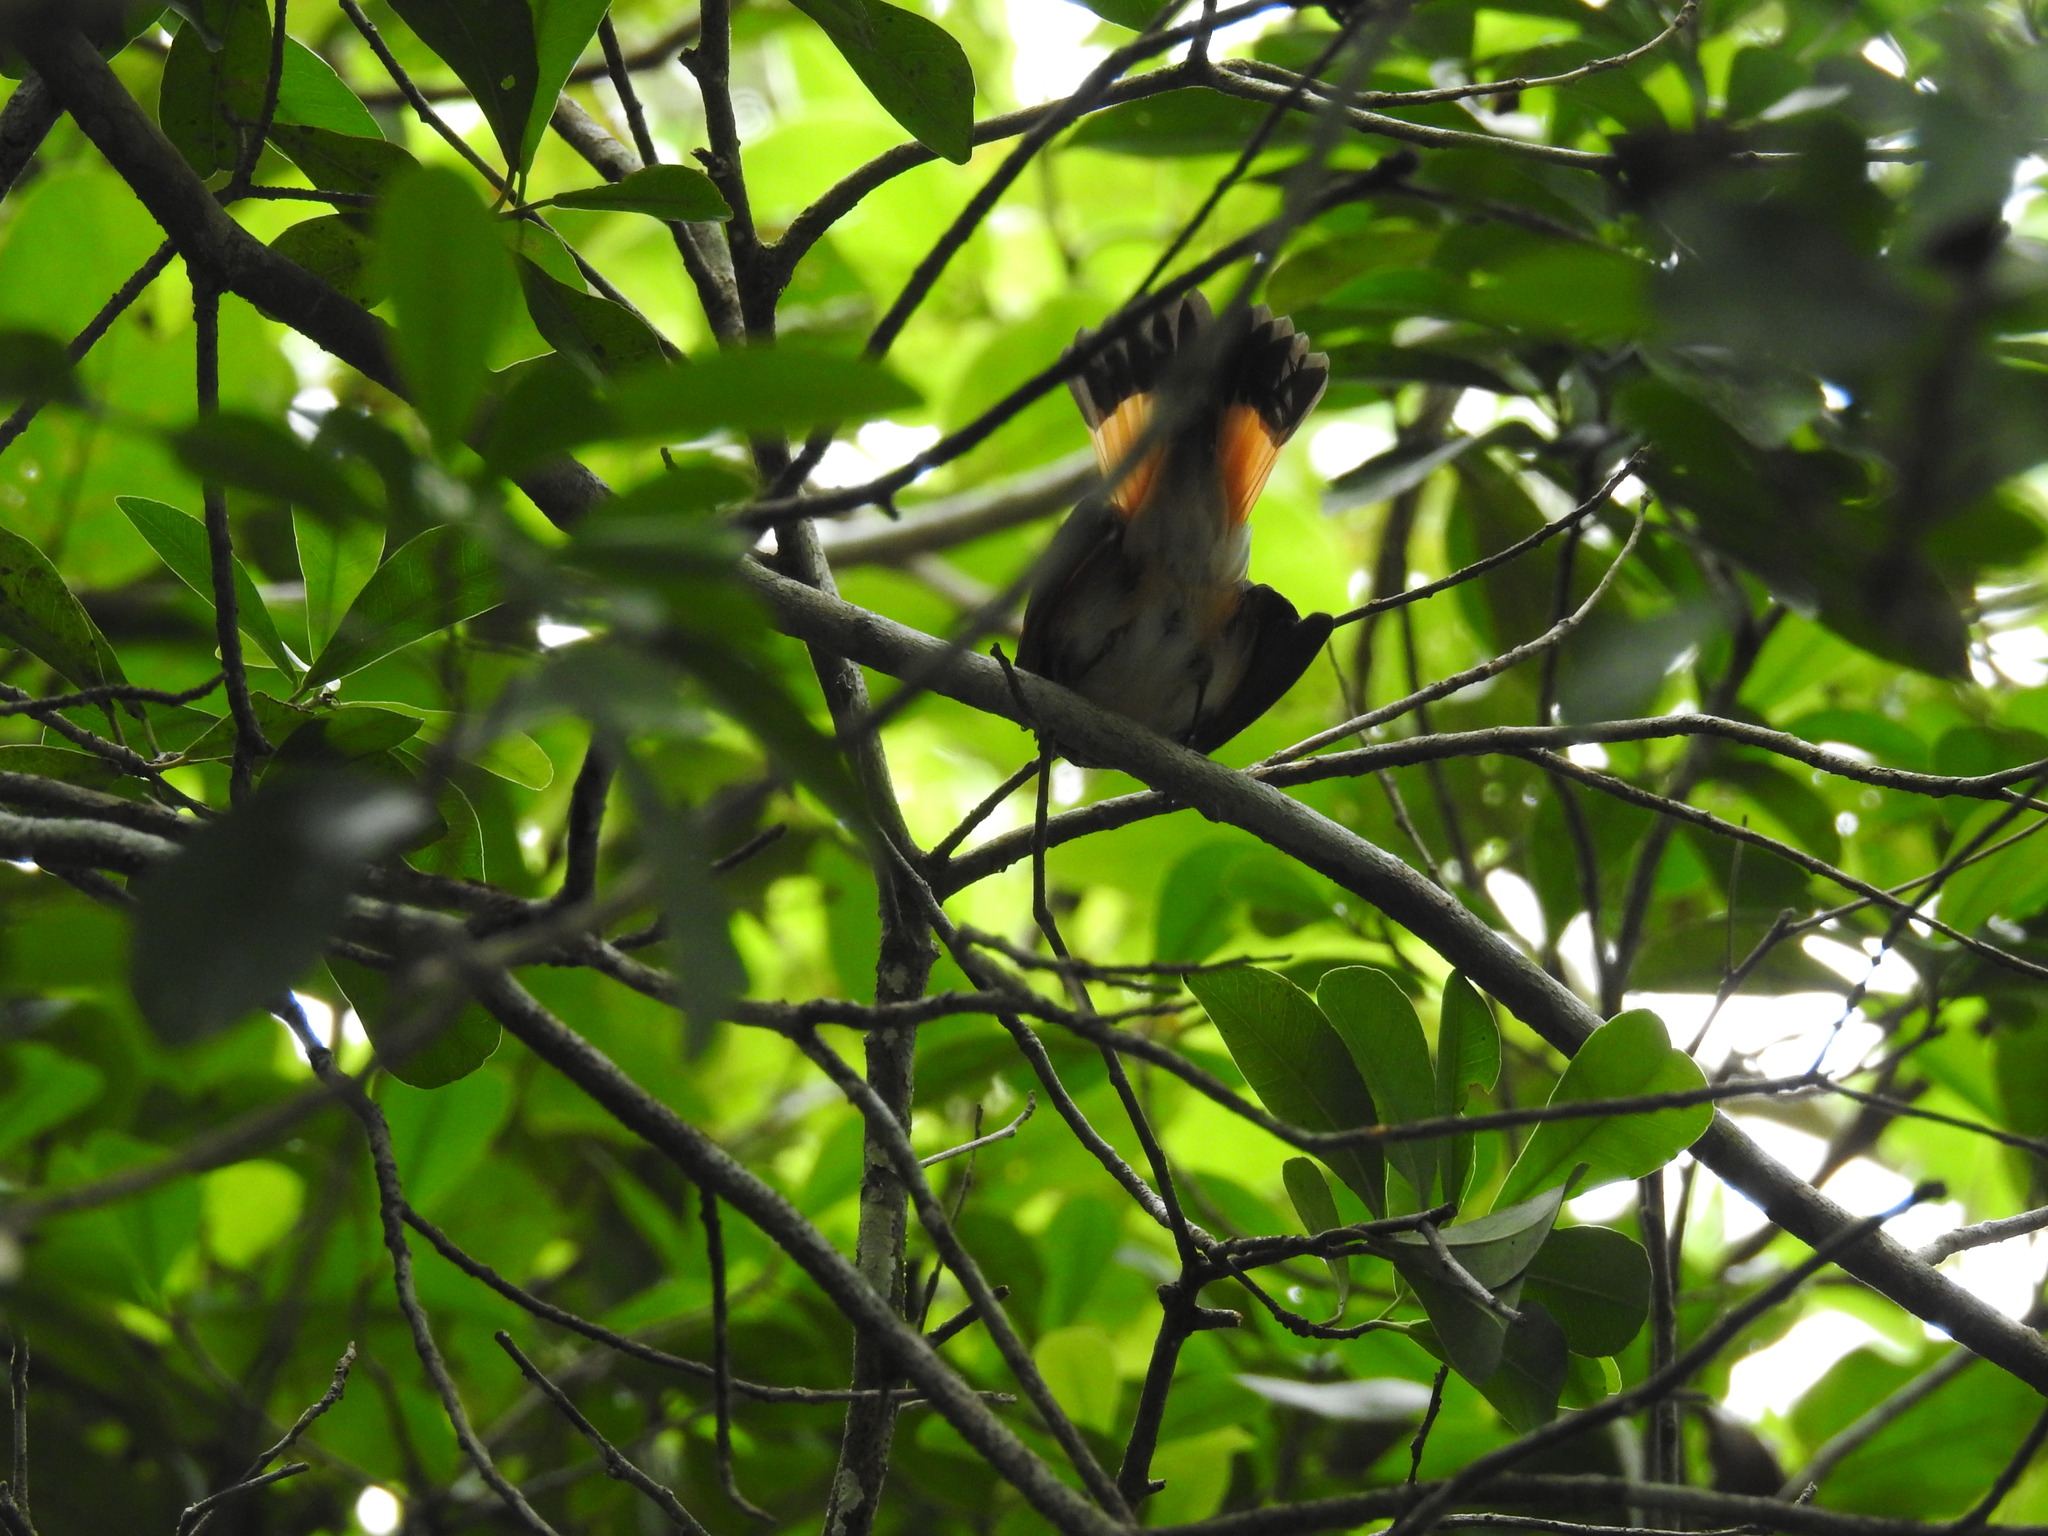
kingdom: Animalia
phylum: Chordata
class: Aves
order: Passeriformes
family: Parulidae
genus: Setophaga
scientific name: Setophaga ruticilla
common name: American redstart
